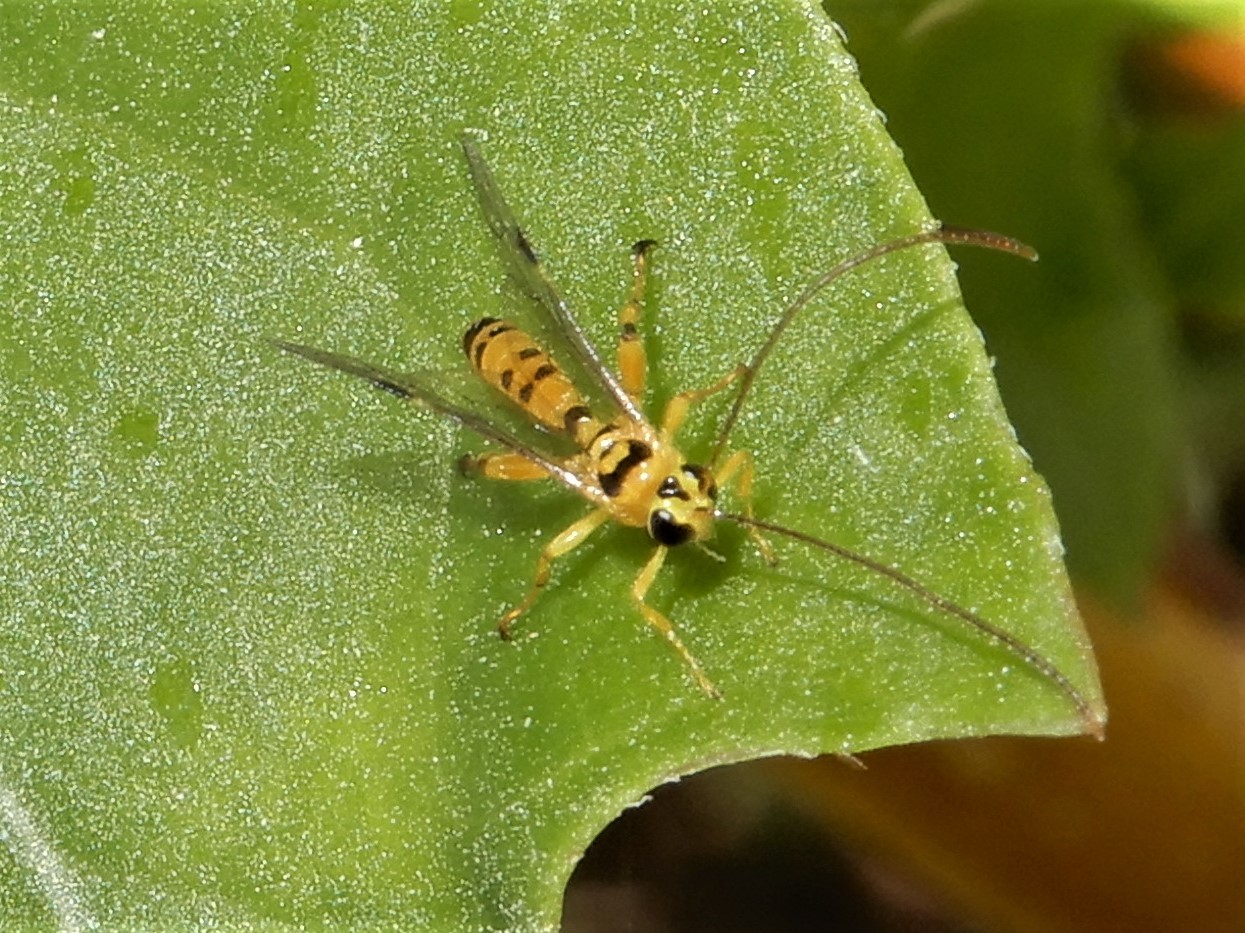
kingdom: Animalia
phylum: Arthropoda
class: Insecta
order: Hymenoptera
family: Ichneumonidae
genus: Xanthopimpla
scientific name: Xanthopimpla rhopaloceros
